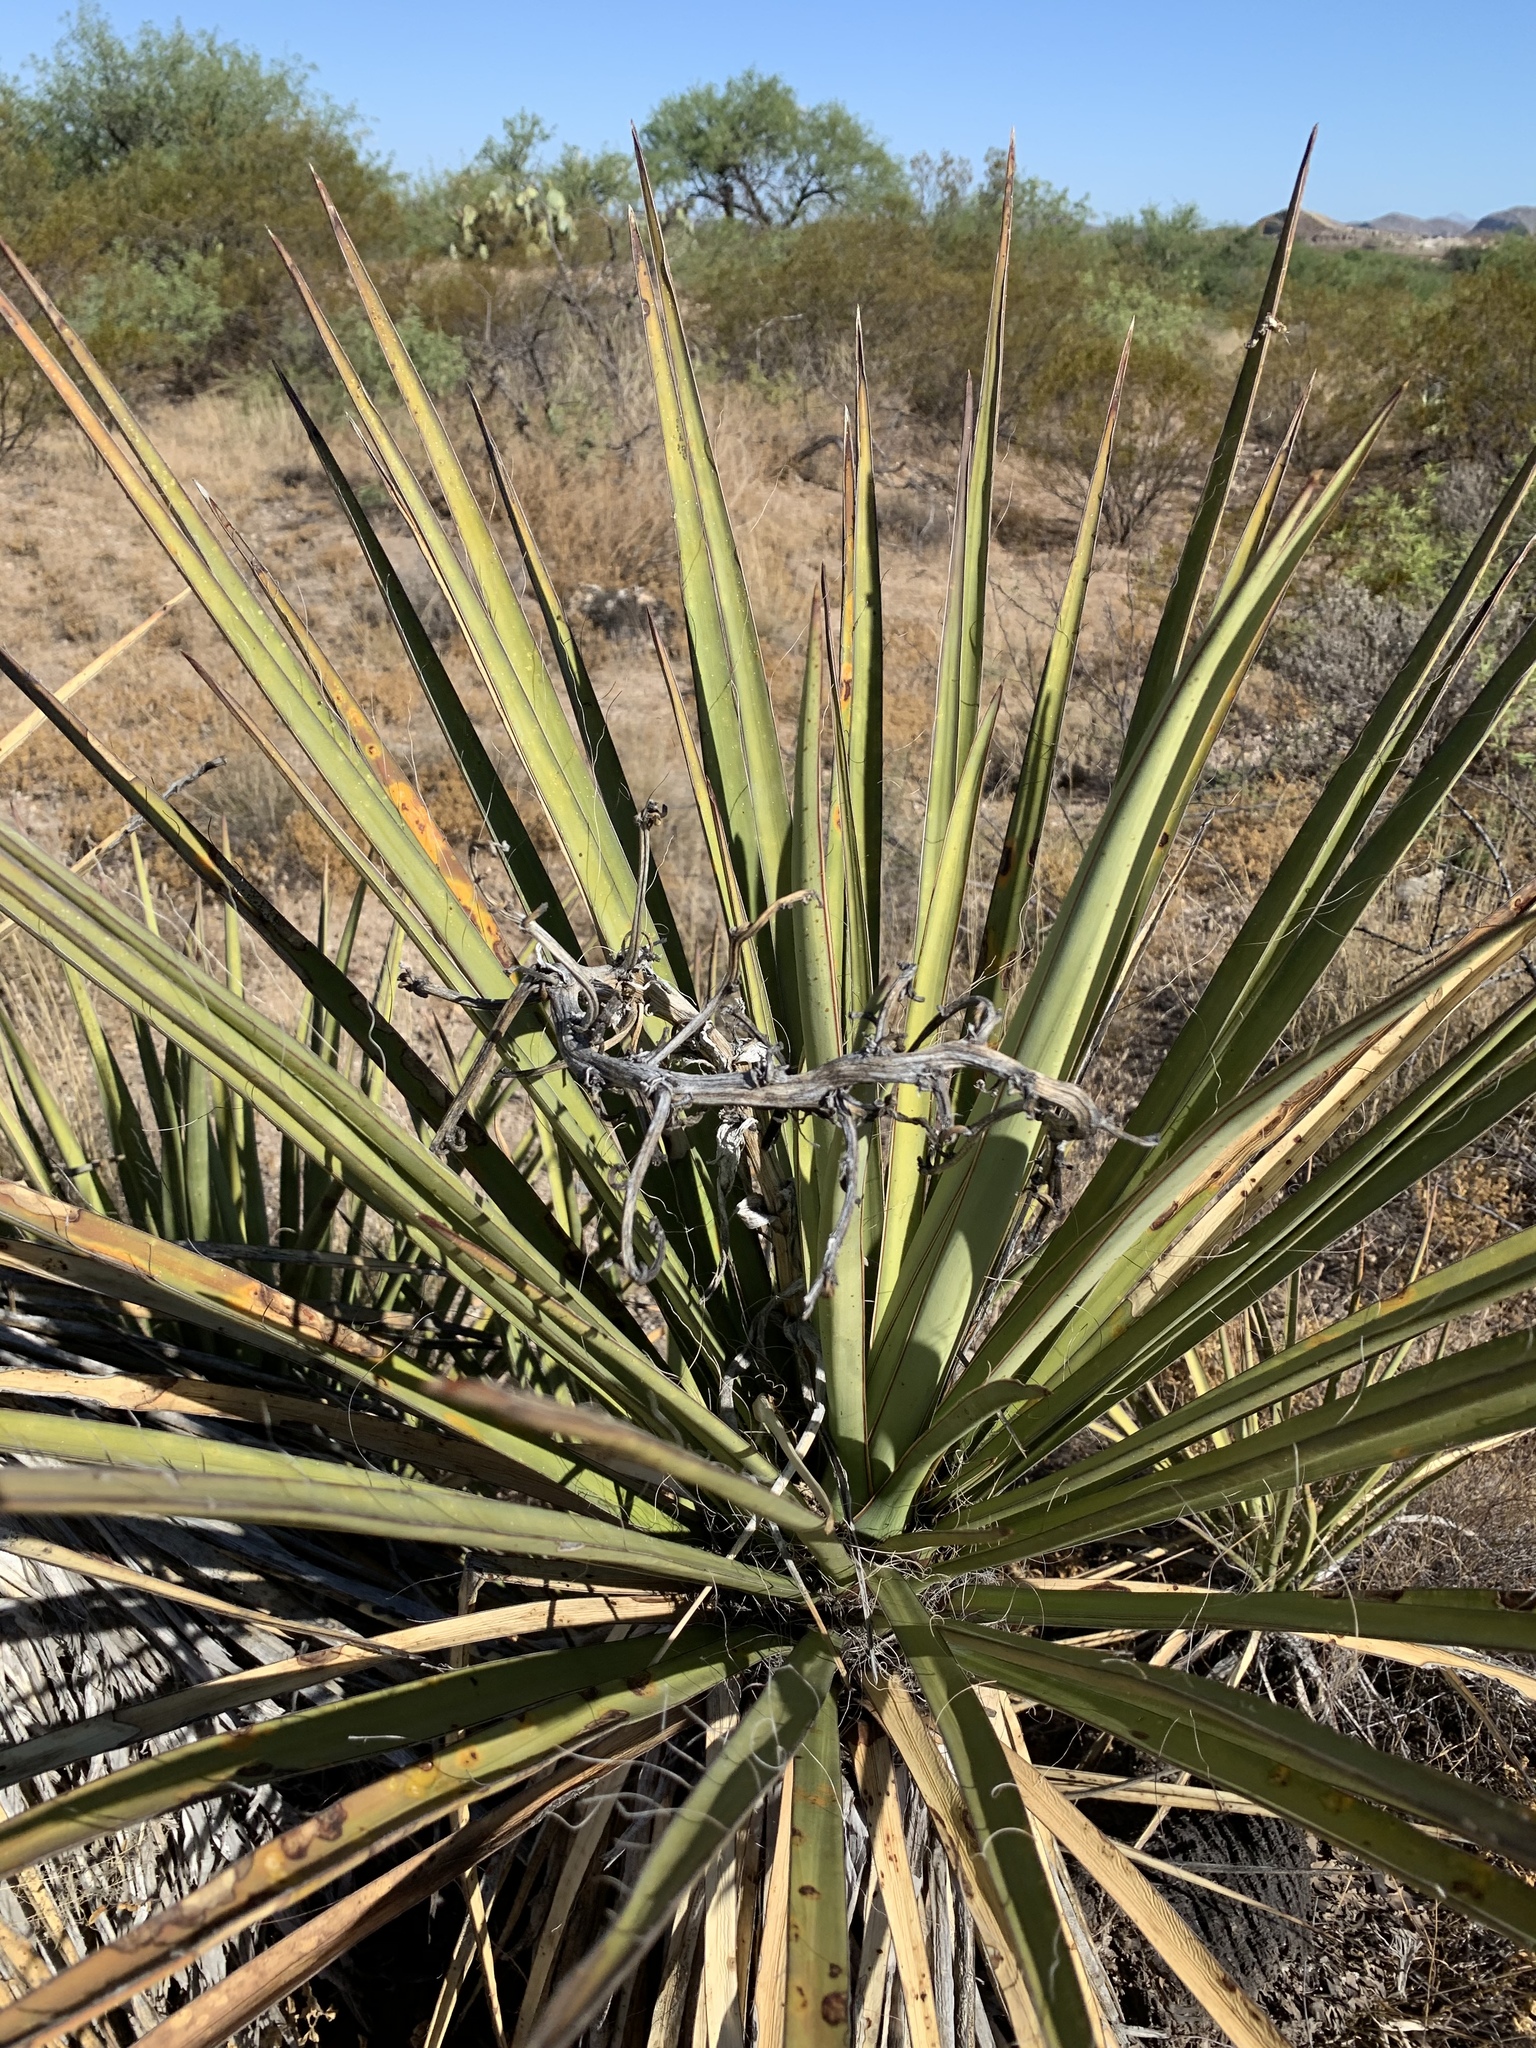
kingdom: Plantae
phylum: Tracheophyta
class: Liliopsida
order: Asparagales
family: Asparagaceae
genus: Yucca
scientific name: Yucca baccata
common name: Banana yucca
